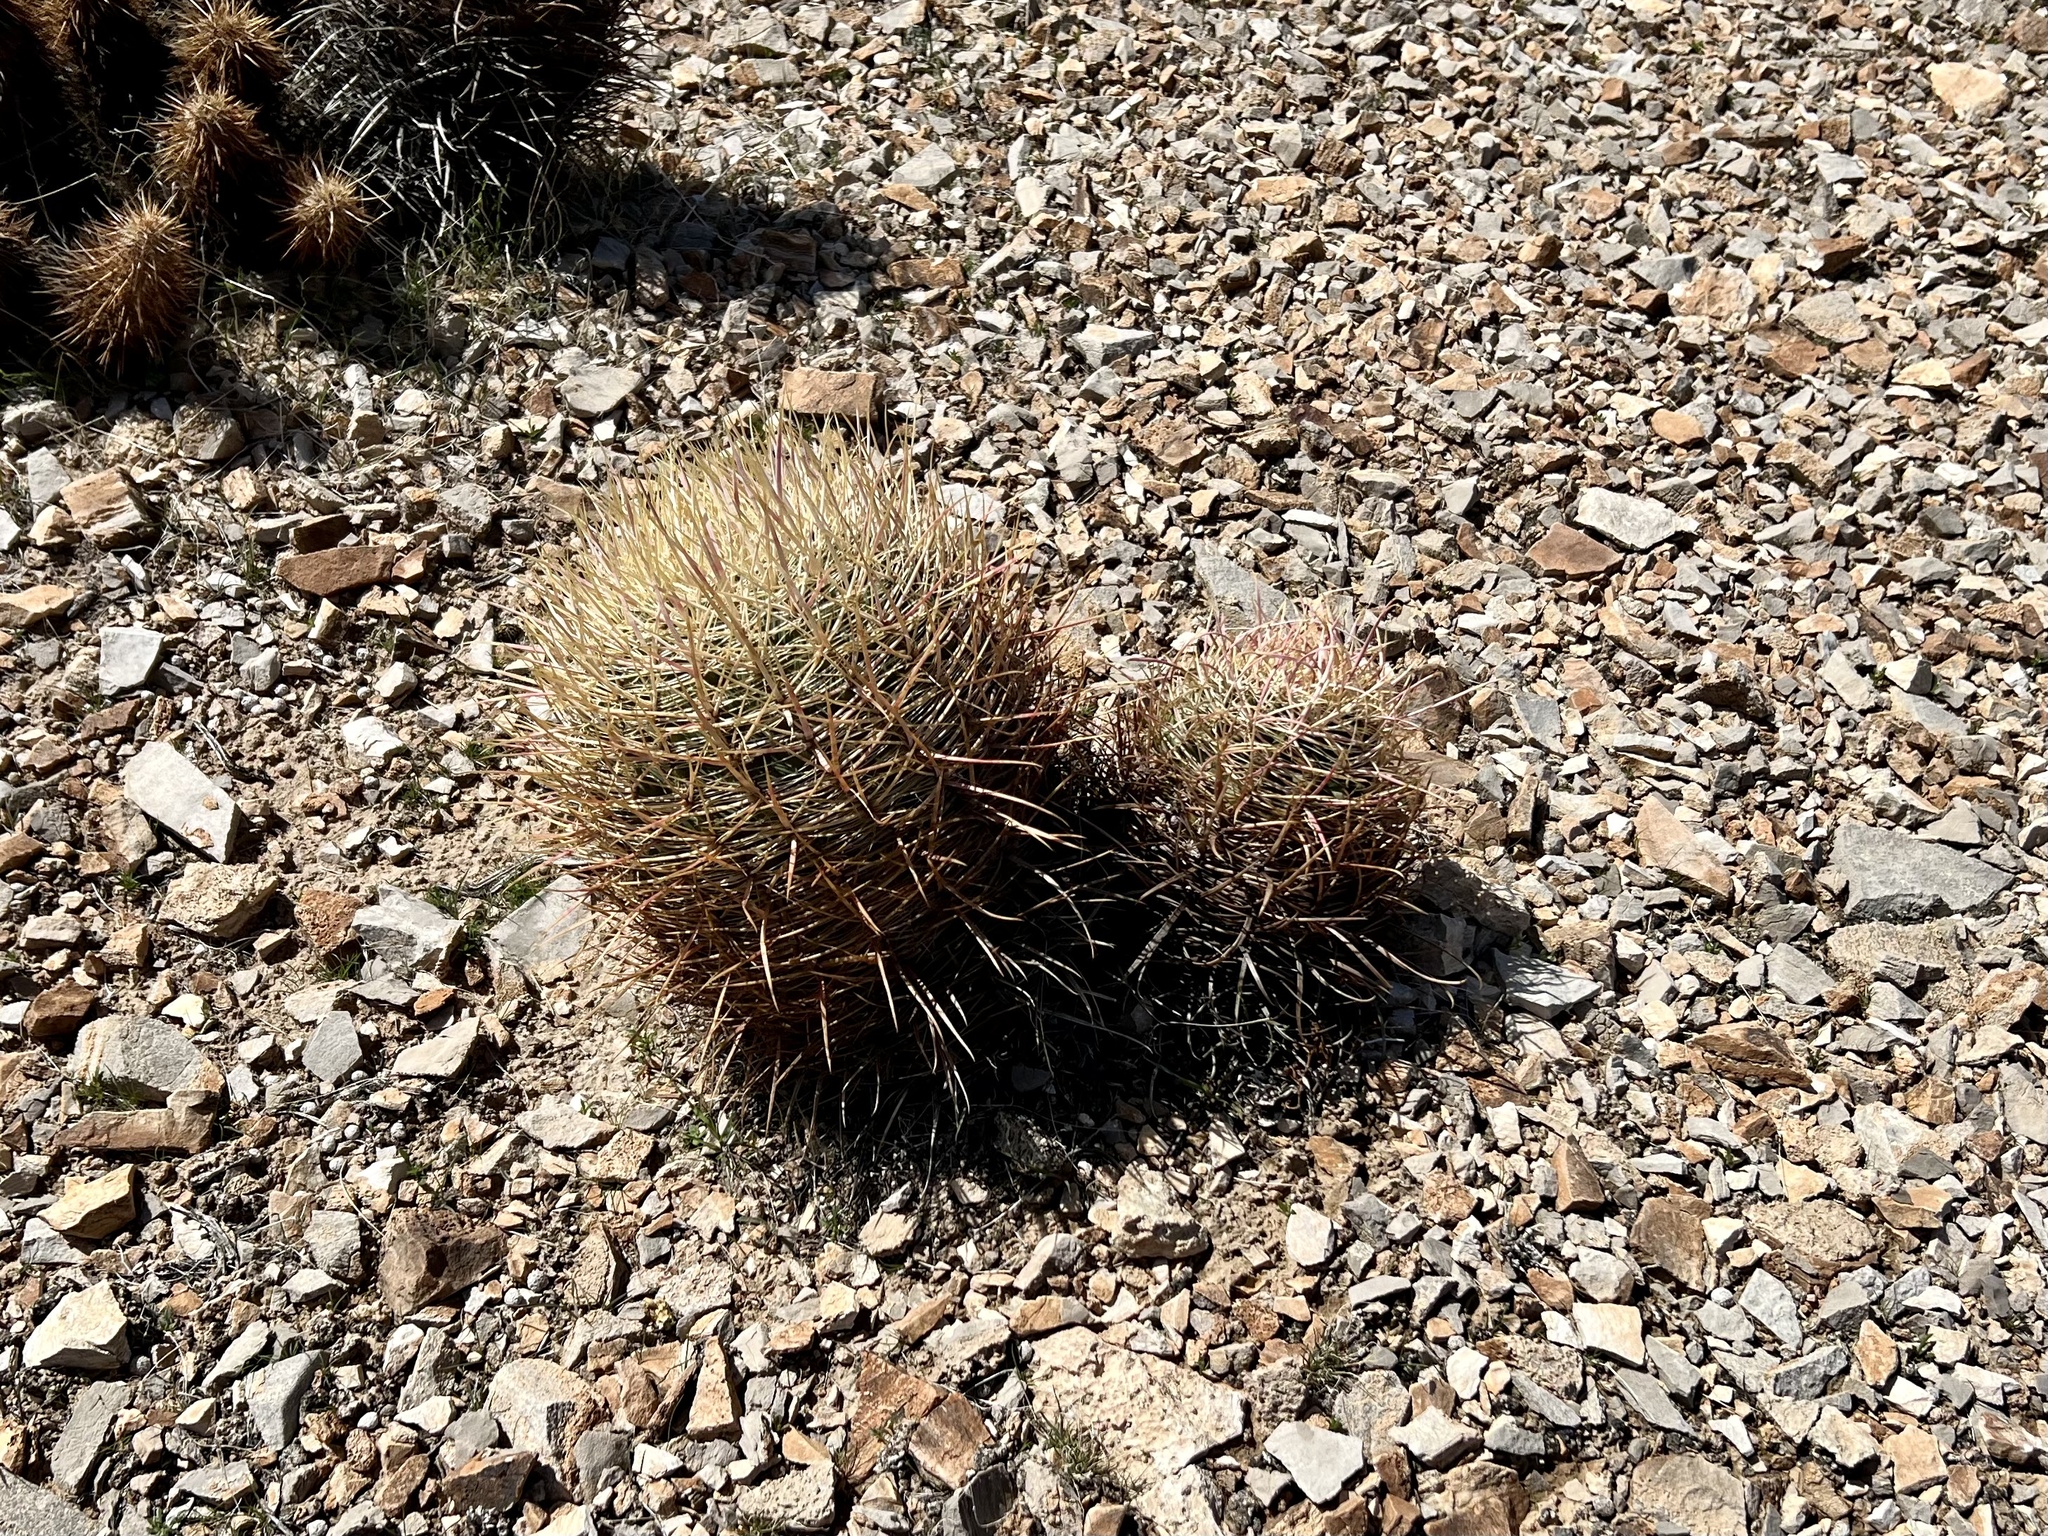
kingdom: Plantae
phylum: Tracheophyta
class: Magnoliopsida
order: Caryophyllales
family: Cactaceae
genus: Ferocactus
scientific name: Ferocactus cylindraceus
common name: California barrel cactus
